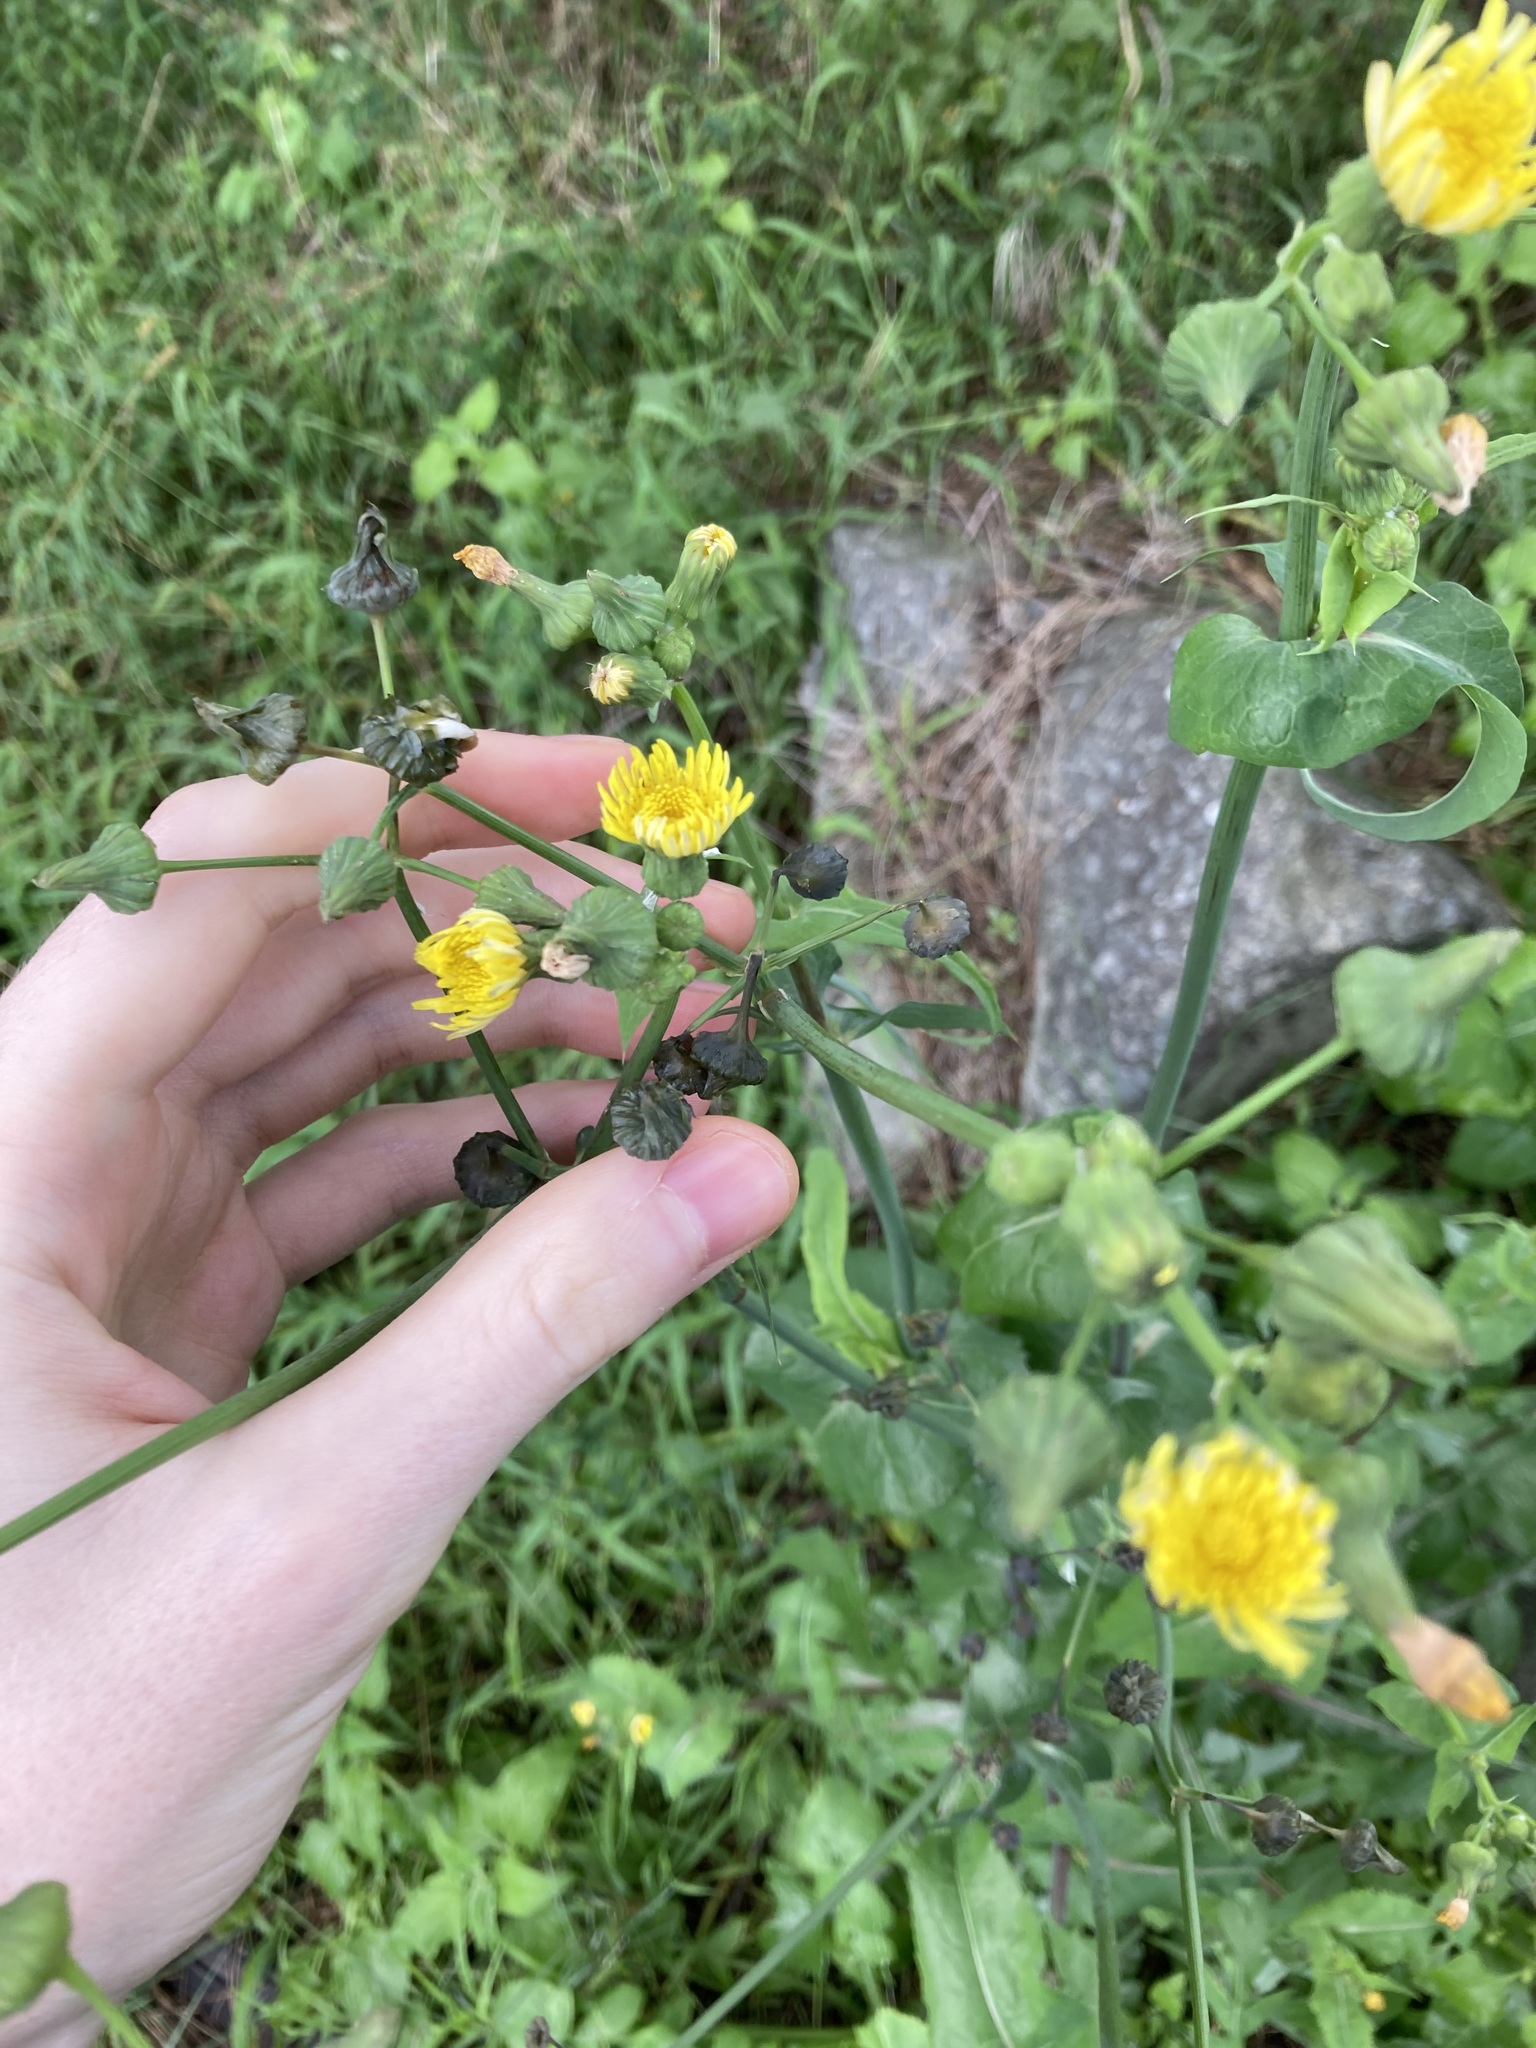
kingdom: Plantae
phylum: Tracheophyta
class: Magnoliopsida
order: Asterales
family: Asteraceae
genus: Sonchus
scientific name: Sonchus oleraceus
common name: Common sowthistle
